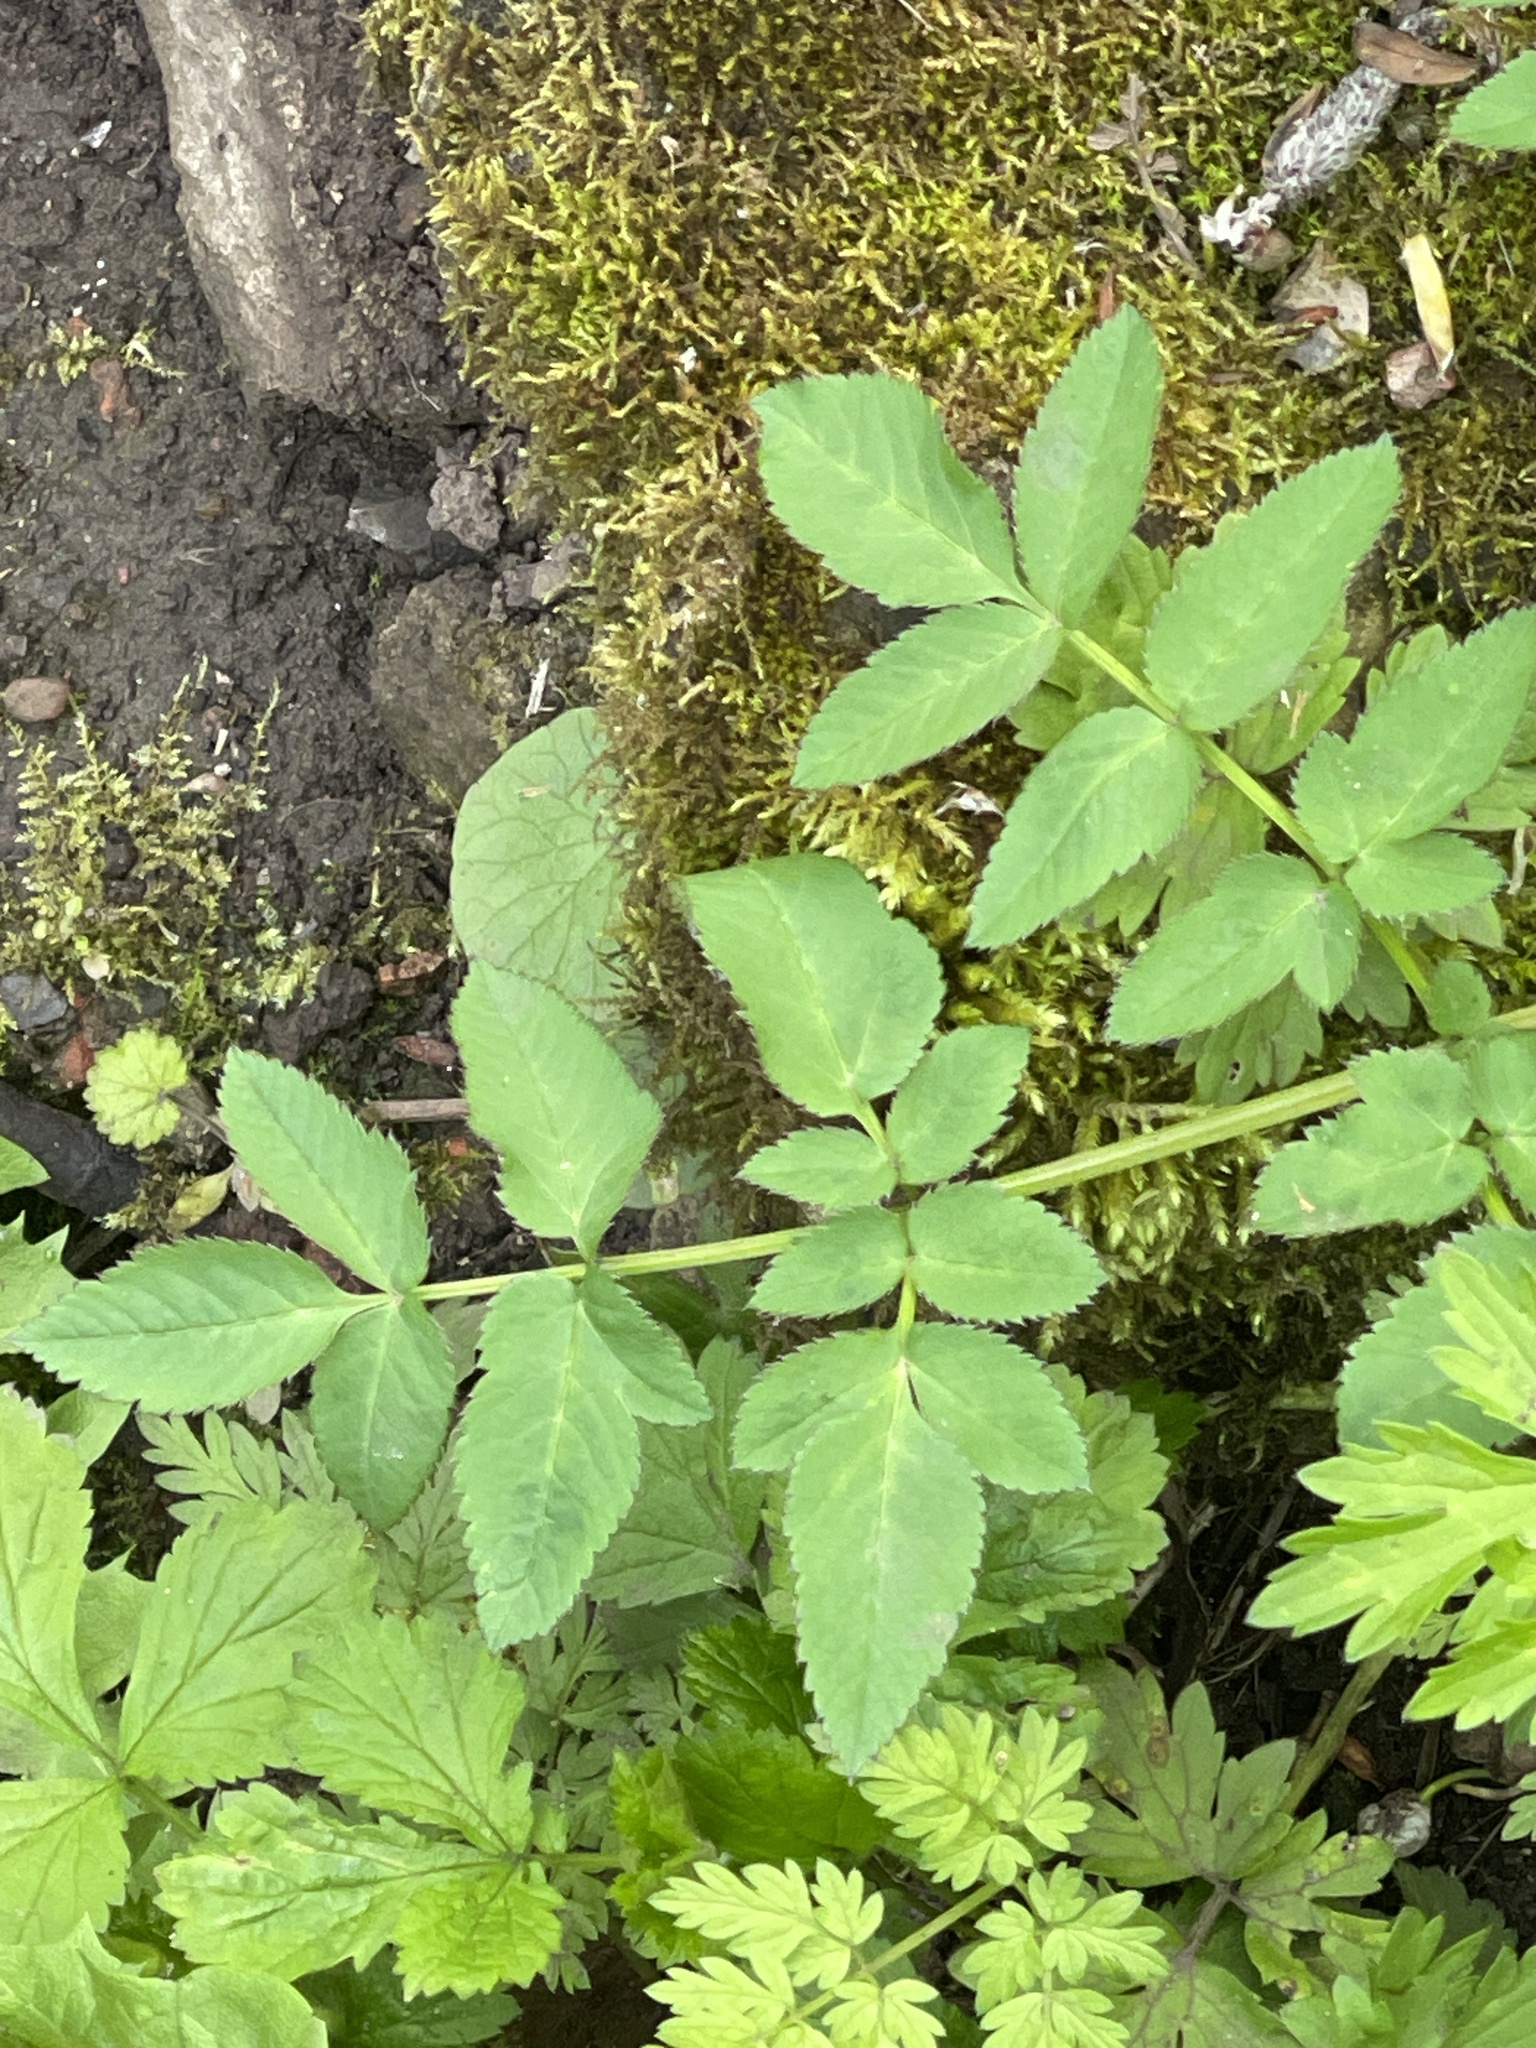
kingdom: Plantae
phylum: Tracheophyta
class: Magnoliopsida
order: Apiales
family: Apiaceae
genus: Angelica
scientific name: Angelica sylvestris
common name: Wild angelica
